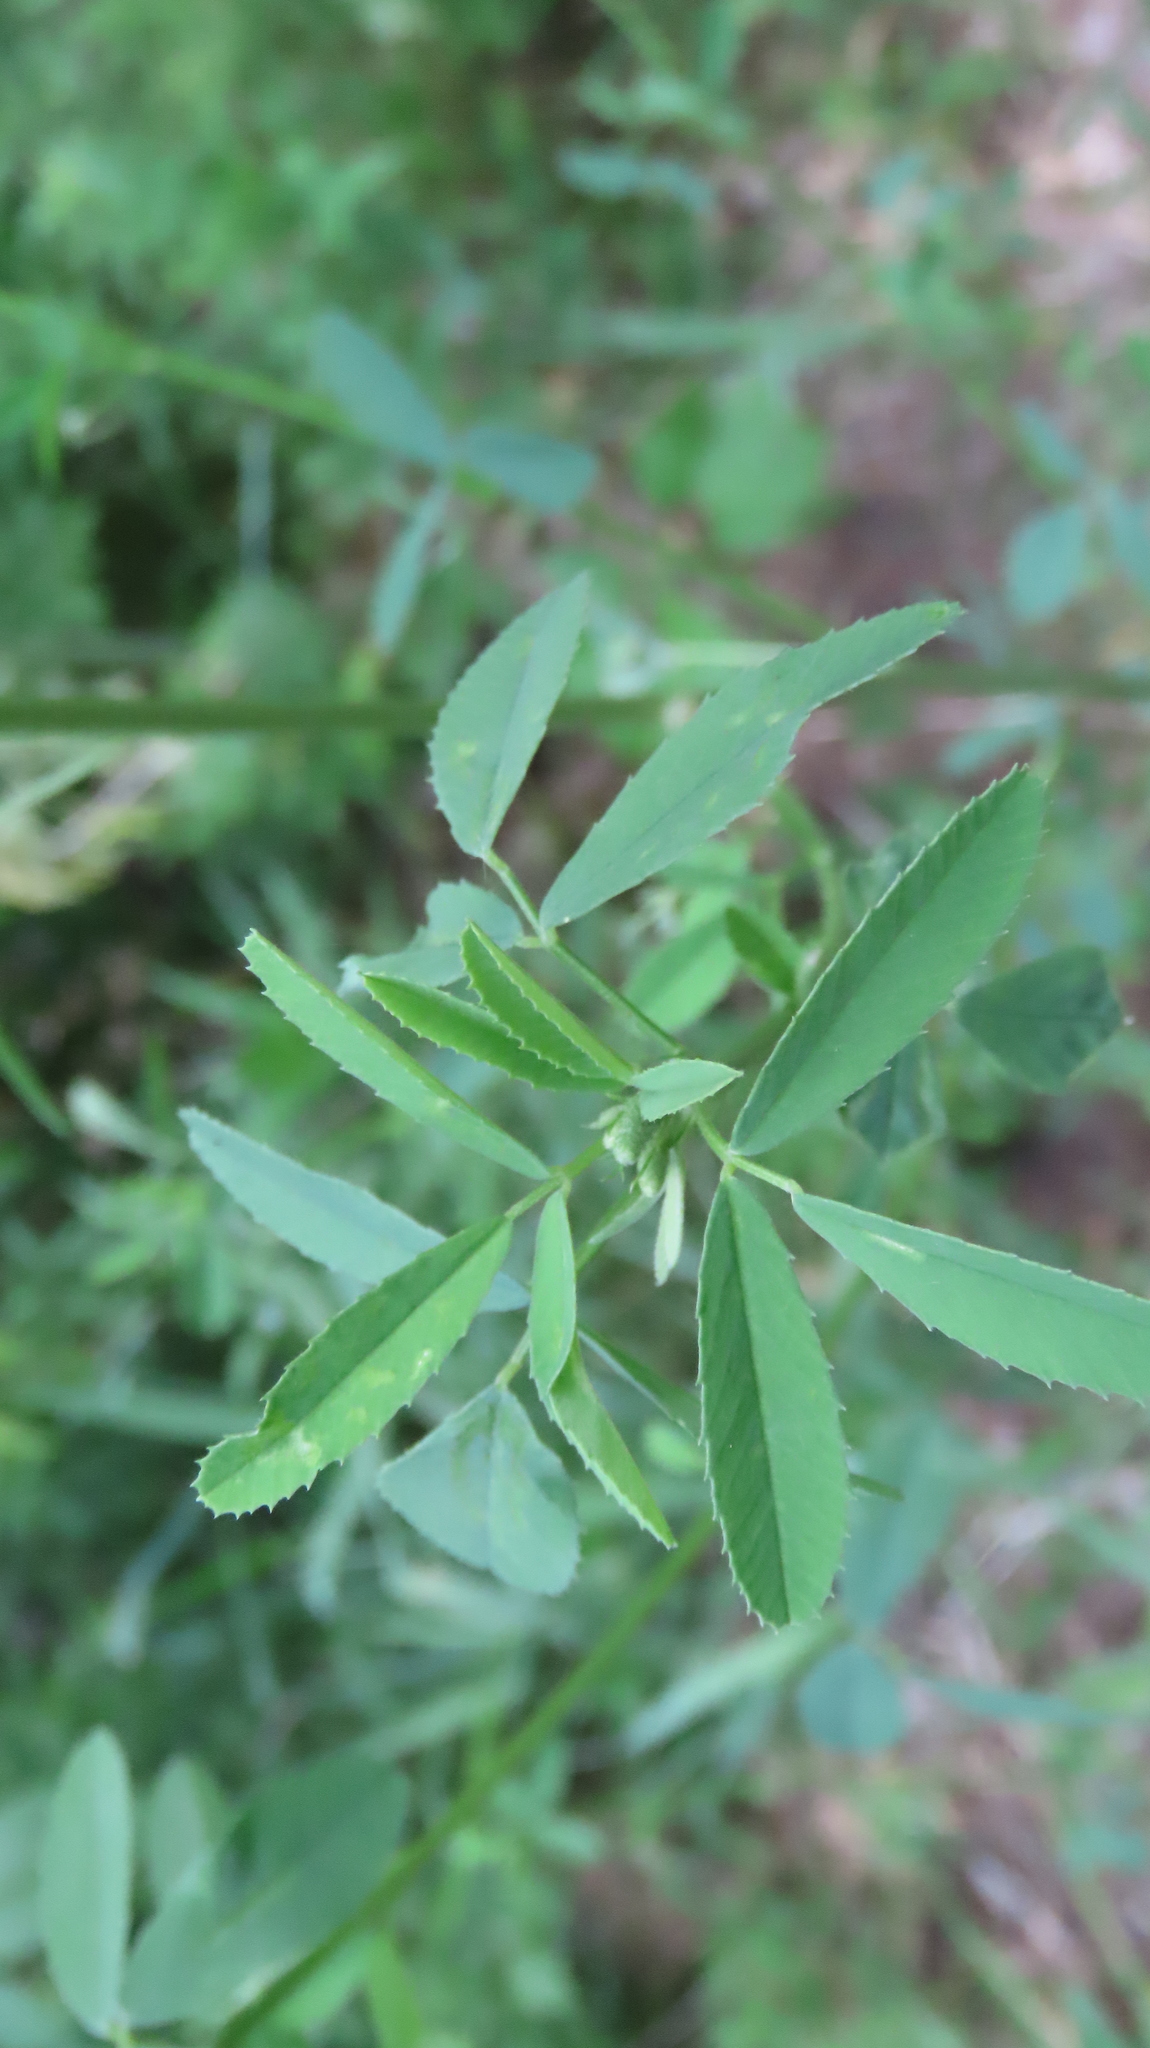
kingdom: Plantae
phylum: Tracheophyta
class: Magnoliopsida
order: Fabales
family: Fabaceae
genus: Melilotus
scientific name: Melilotus albus
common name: White melilot
